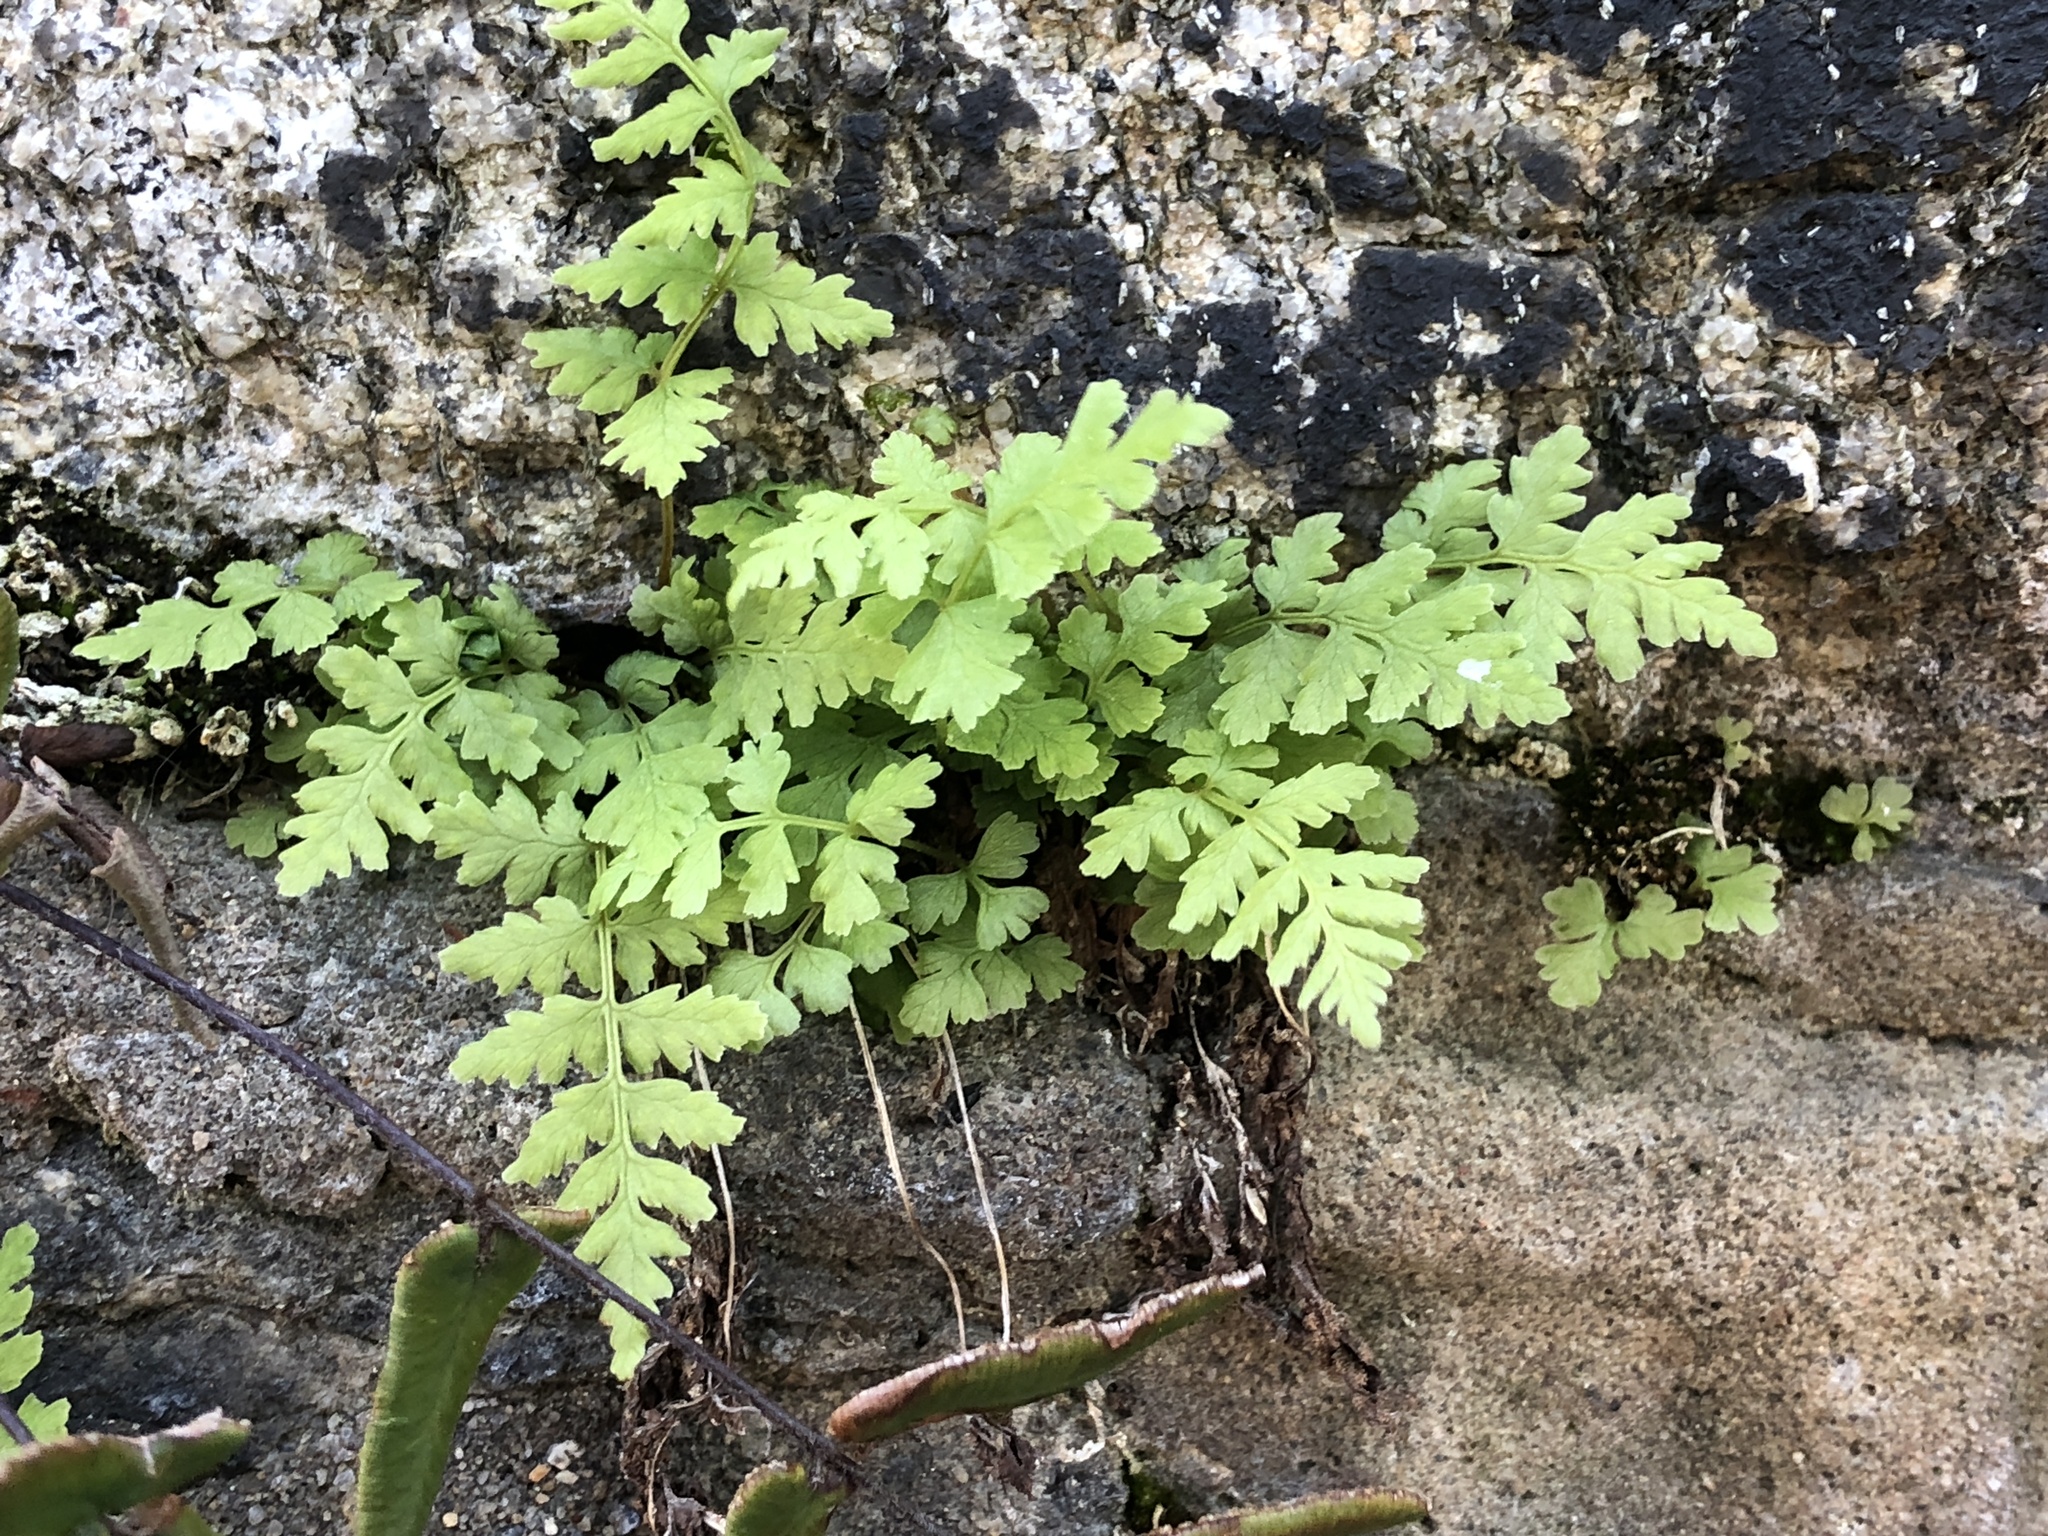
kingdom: Plantae
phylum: Tracheophyta
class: Polypodiopsida
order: Polypodiales
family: Woodsiaceae
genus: Physematium
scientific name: Physematium obtusum
